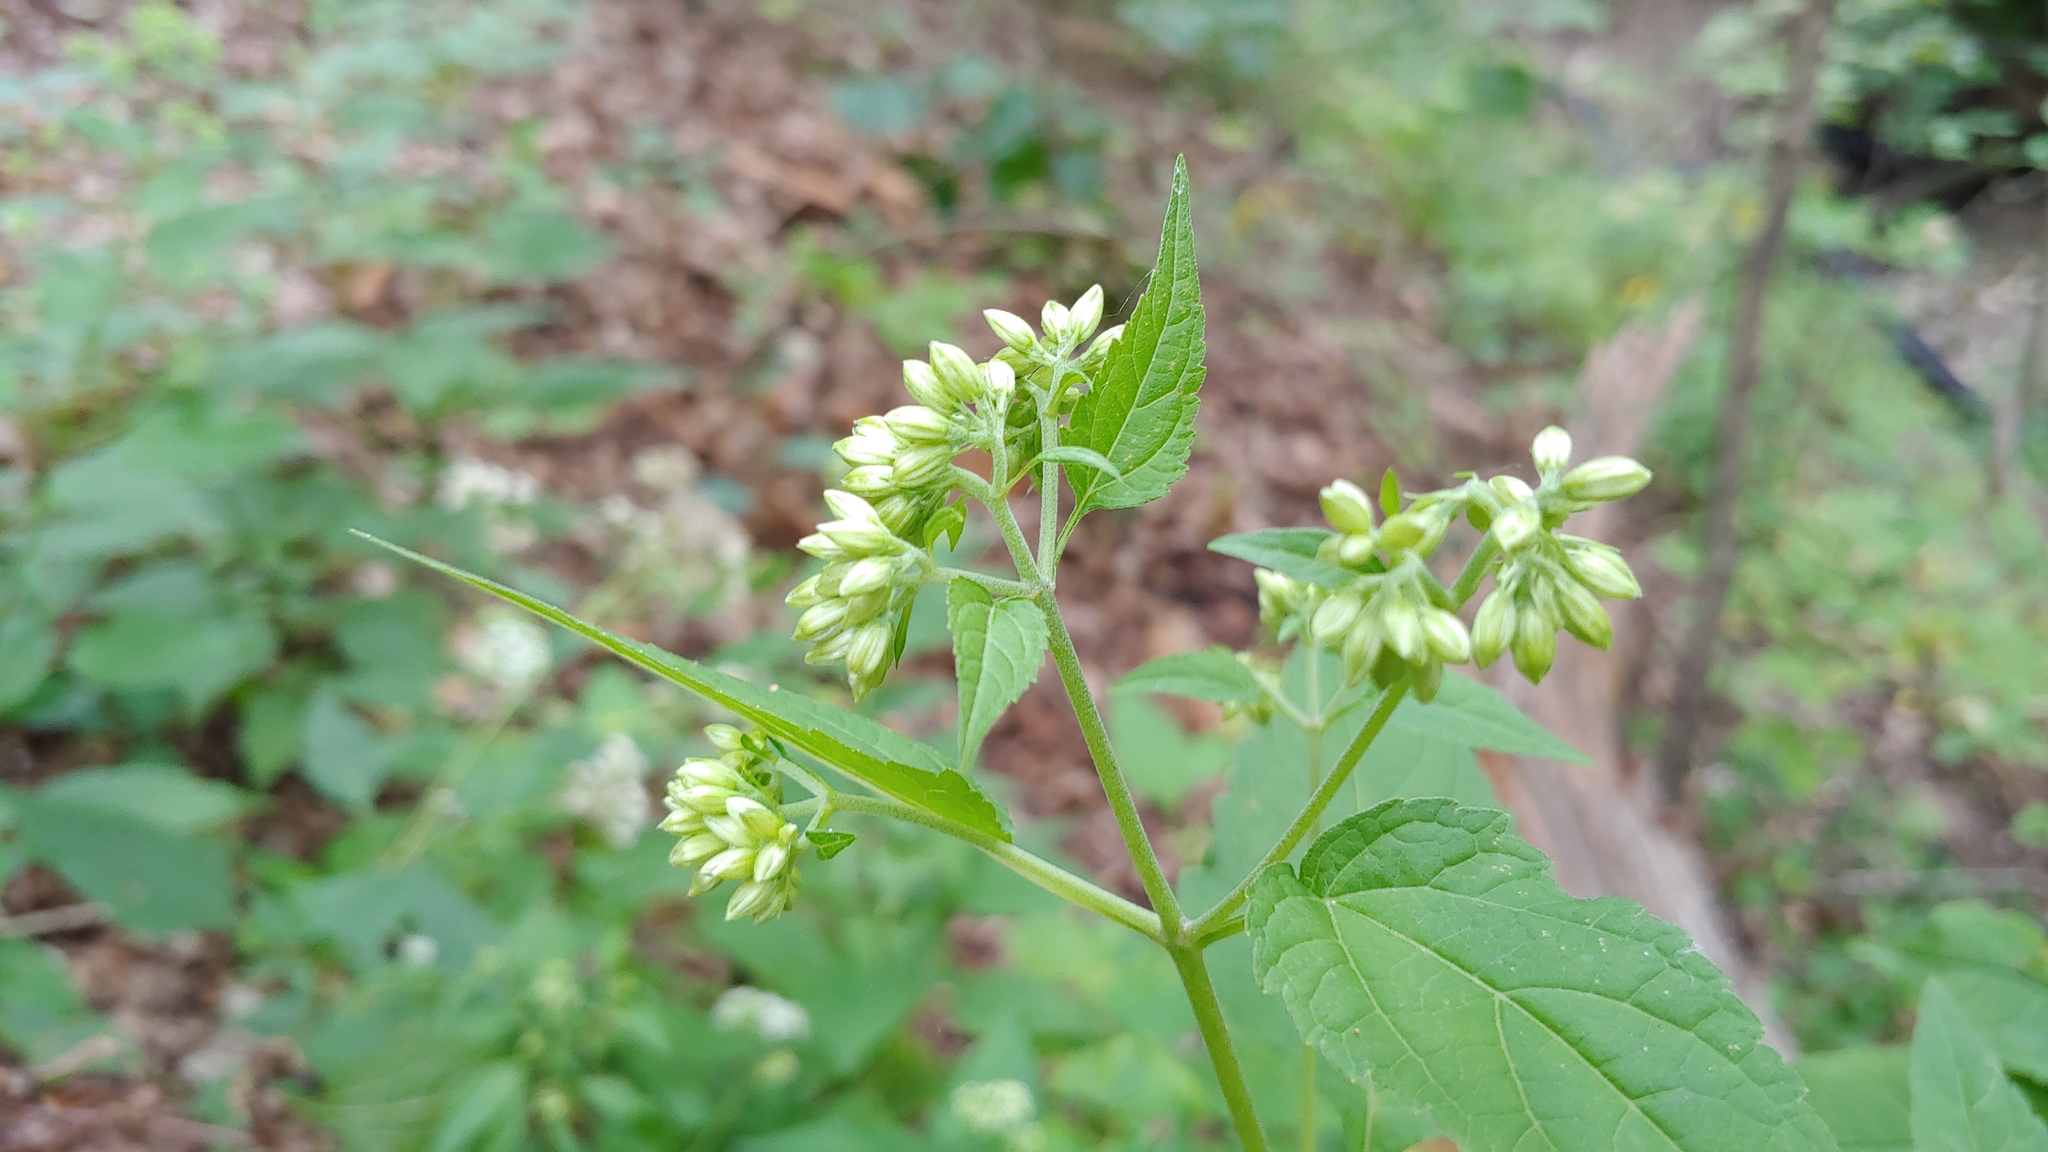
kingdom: Plantae
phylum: Tracheophyta
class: Magnoliopsida
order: Asterales
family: Asteraceae
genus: Ageratina
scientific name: Ageratina altissima
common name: White snakeroot
